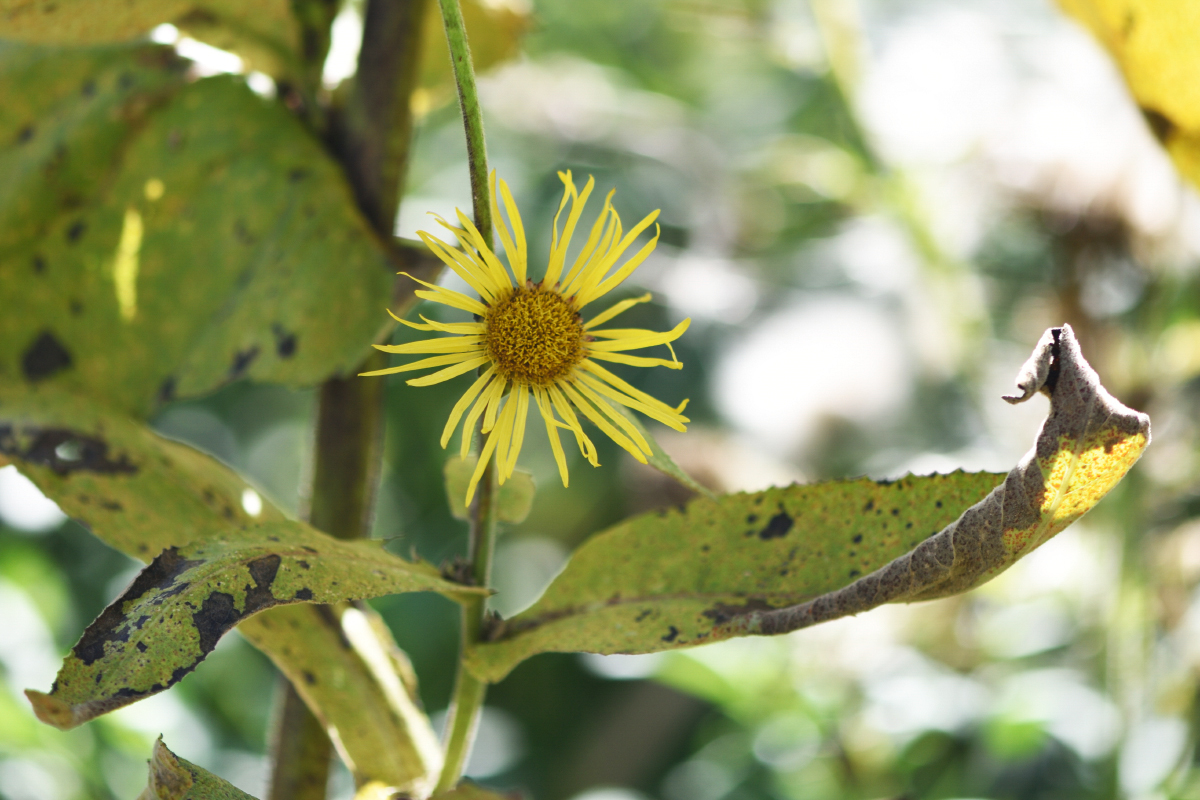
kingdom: Plantae
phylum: Tracheophyta
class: Magnoliopsida
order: Asterales
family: Asteraceae
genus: Inula
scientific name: Inula helenium
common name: Elecampane
